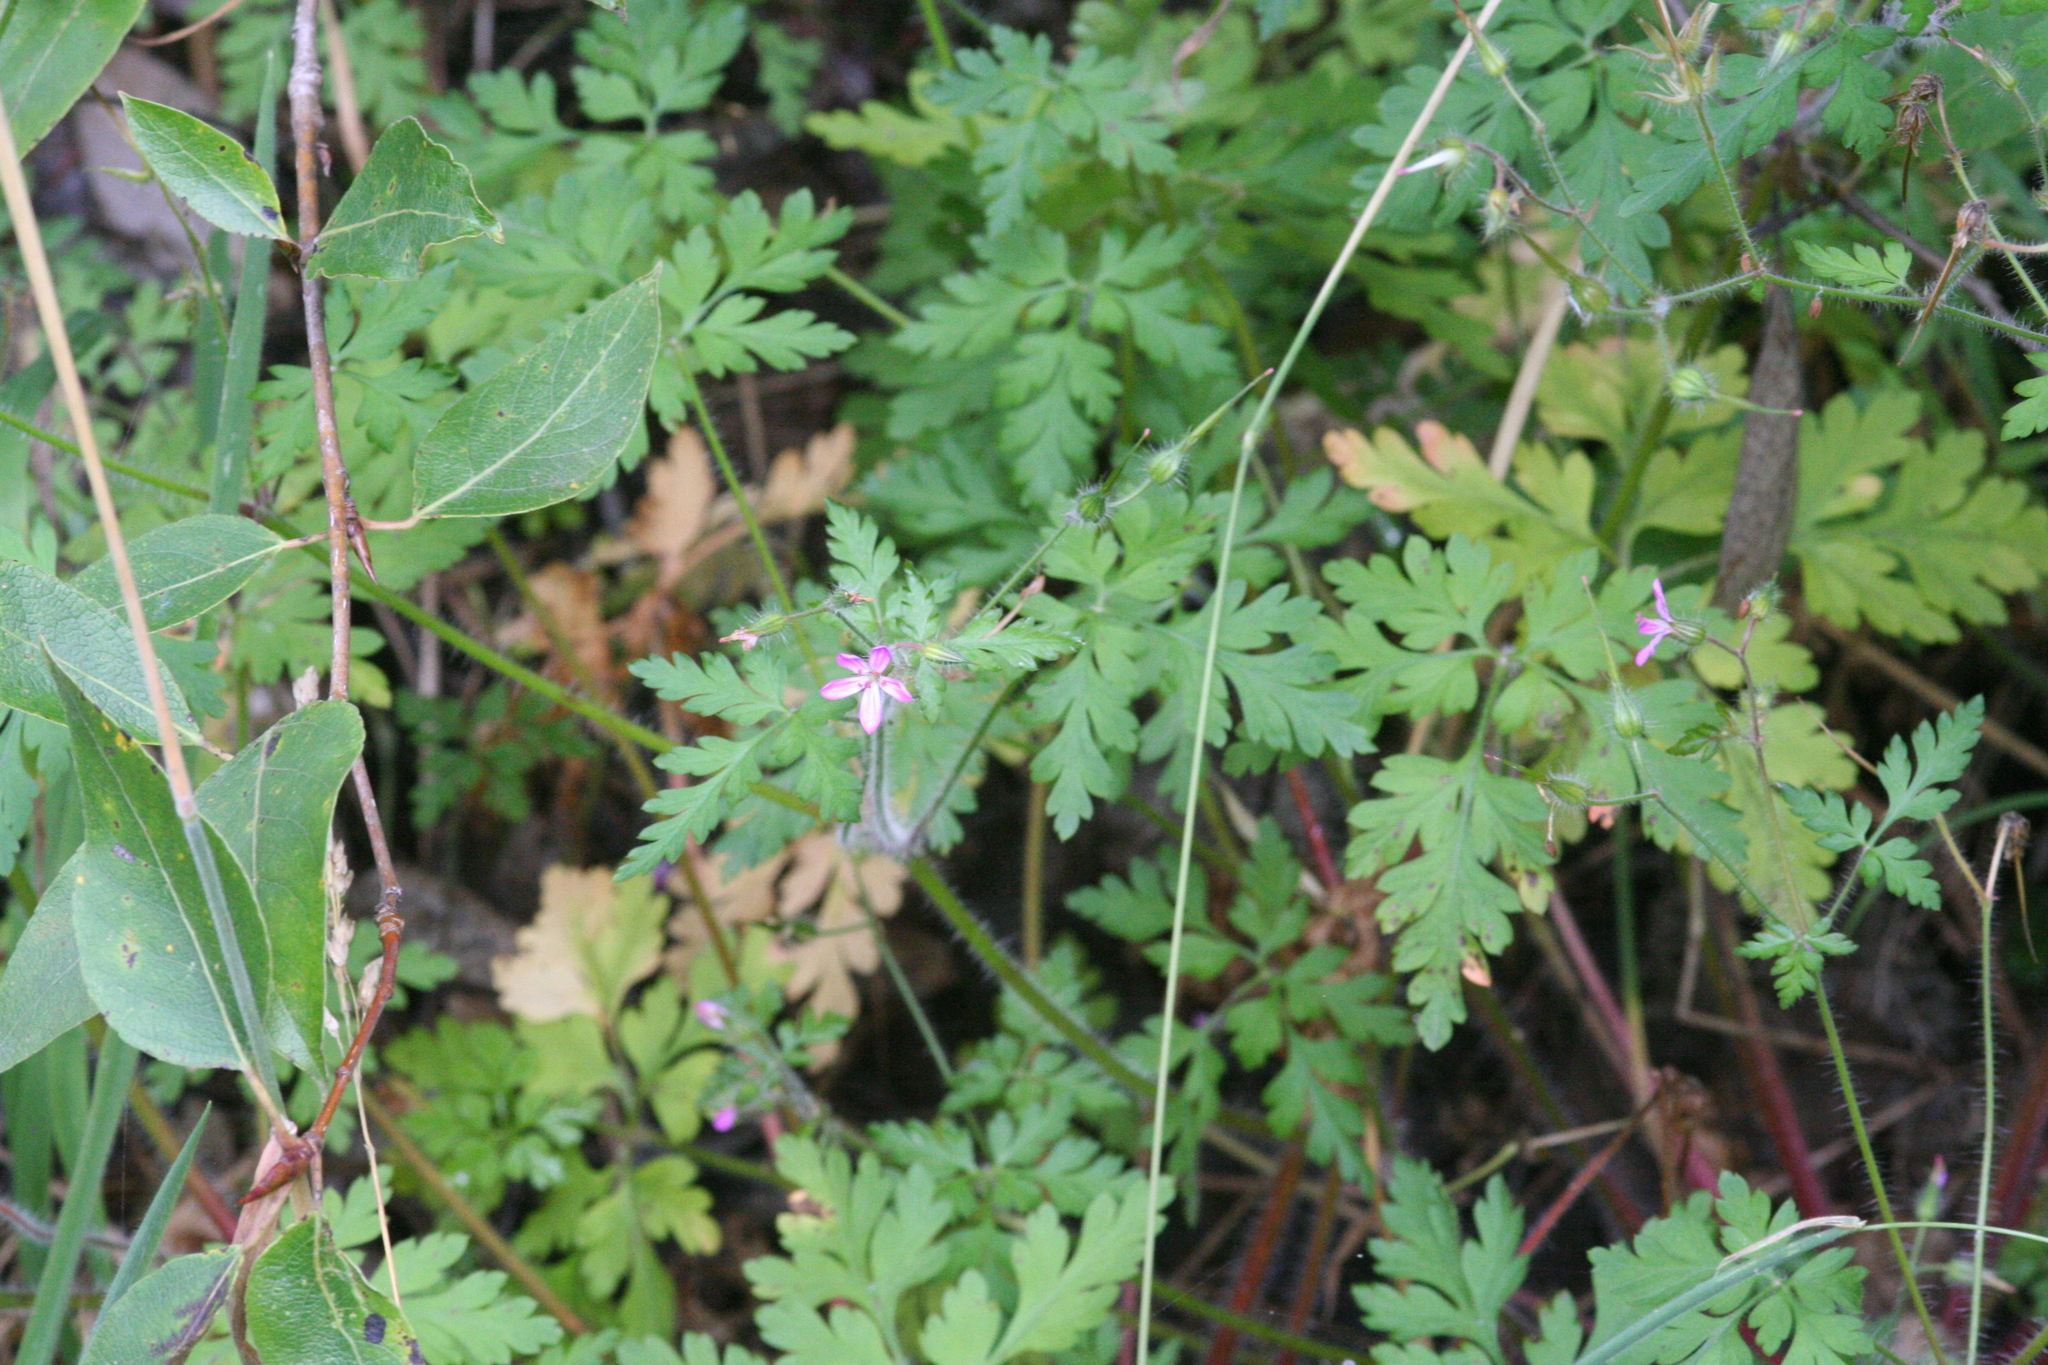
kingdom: Plantae
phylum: Tracheophyta
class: Magnoliopsida
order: Geraniales
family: Geraniaceae
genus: Geranium
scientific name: Geranium robertianum
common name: Herb-robert
